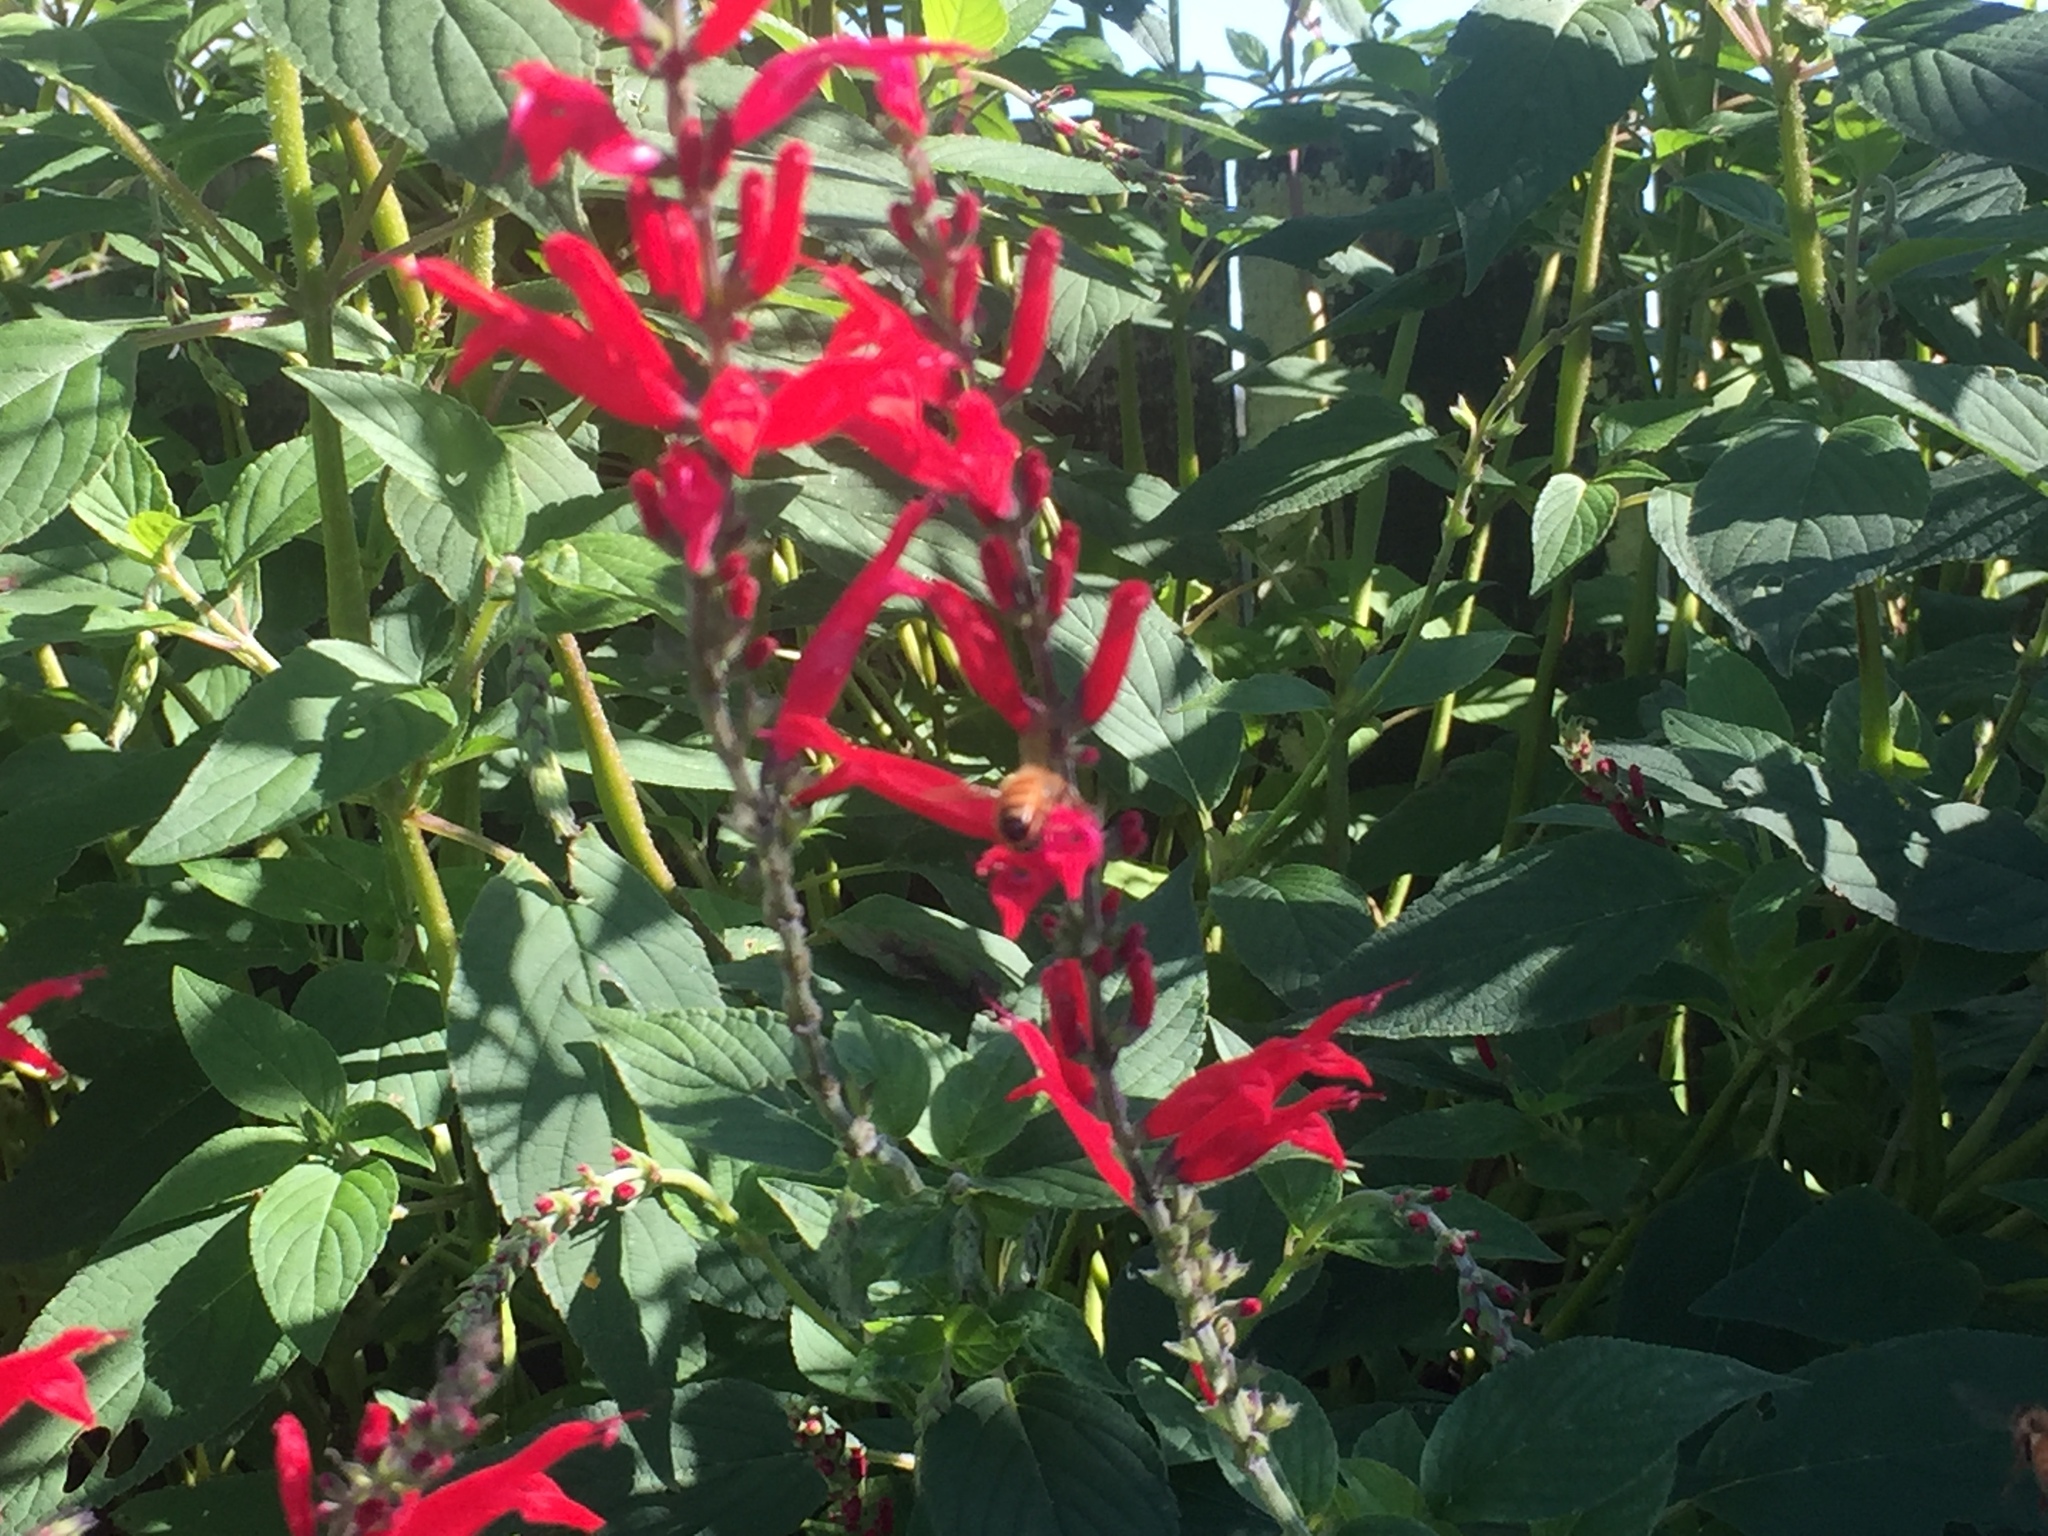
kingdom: Animalia
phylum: Arthropoda
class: Insecta
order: Hymenoptera
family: Apidae
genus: Apis
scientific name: Apis mellifera
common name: Honey bee
